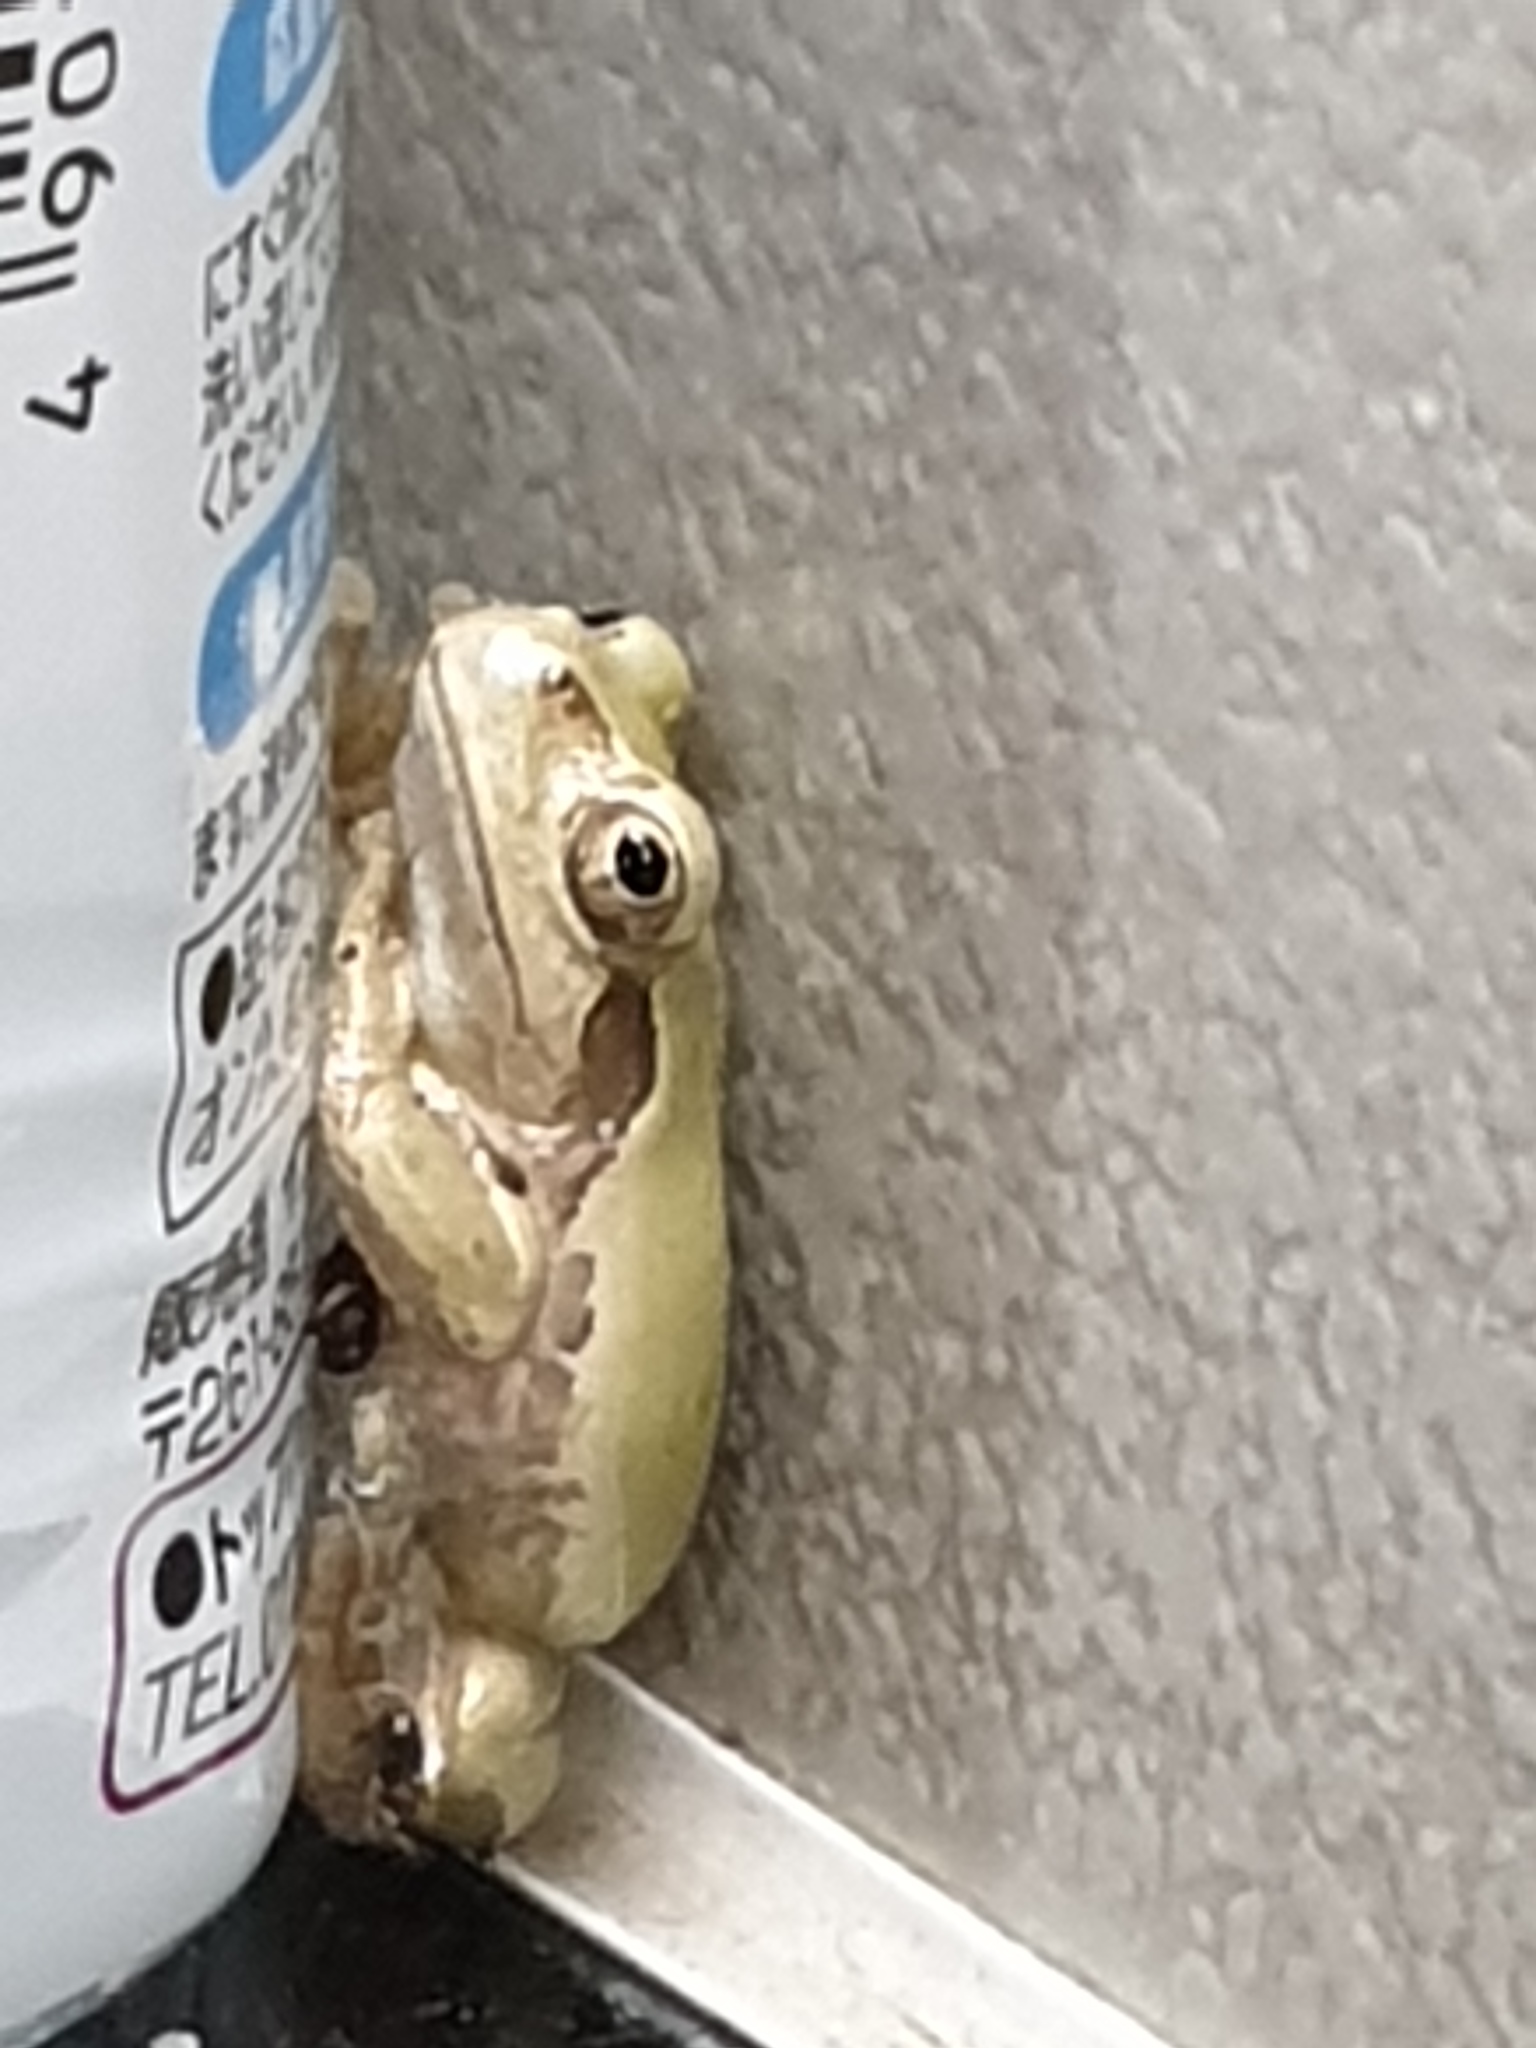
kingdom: Animalia
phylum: Chordata
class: Amphibia
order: Anura
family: Hylidae
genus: Dryophytes
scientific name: Dryophytes japonicus
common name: Japanese treefrog
